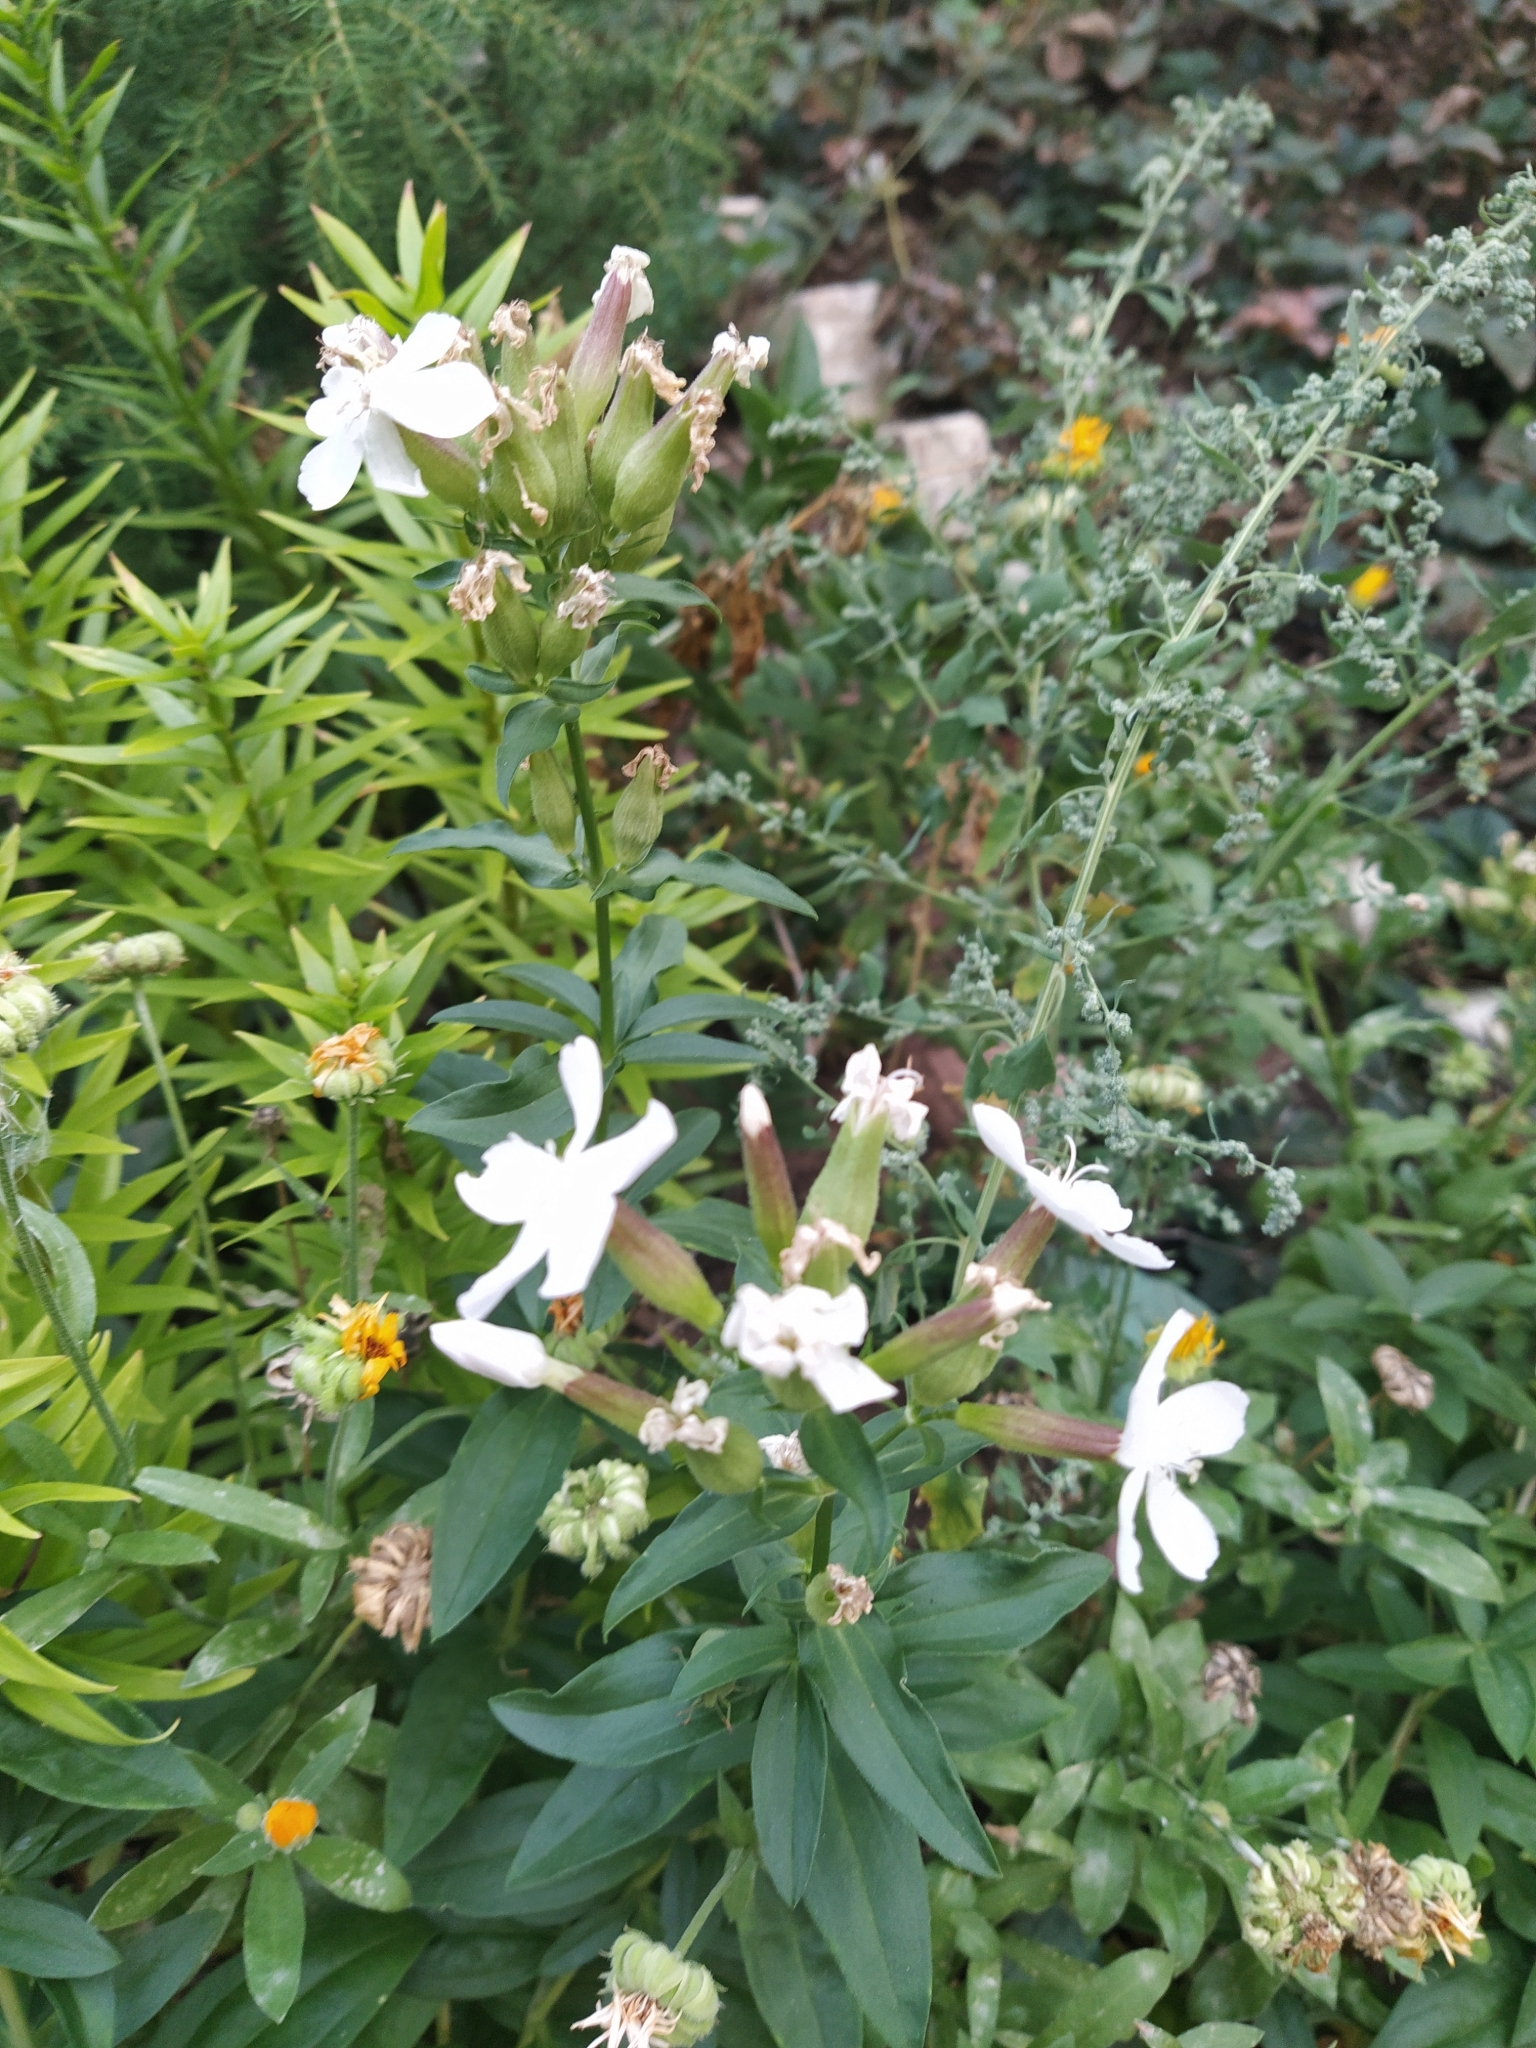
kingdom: Plantae
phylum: Tracheophyta
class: Magnoliopsida
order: Caryophyllales
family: Caryophyllaceae
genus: Saponaria
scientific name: Saponaria officinalis
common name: Soapwort
